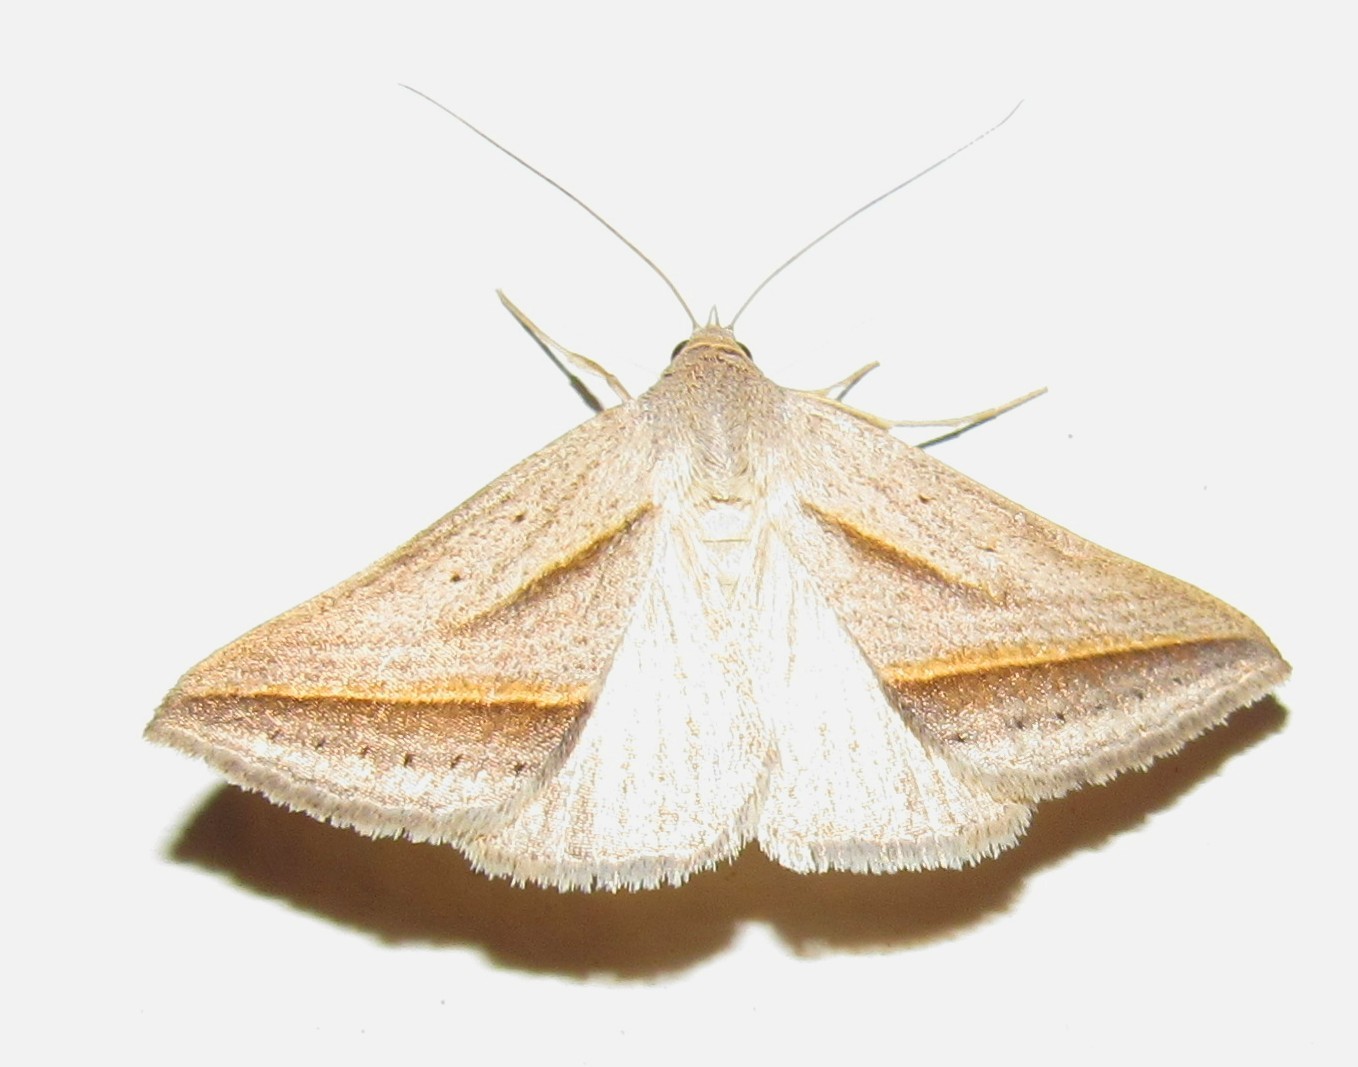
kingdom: Animalia
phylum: Arthropoda
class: Insecta
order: Lepidoptera
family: Erebidae
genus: Ptichodis
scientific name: Ptichodis dorsalis
